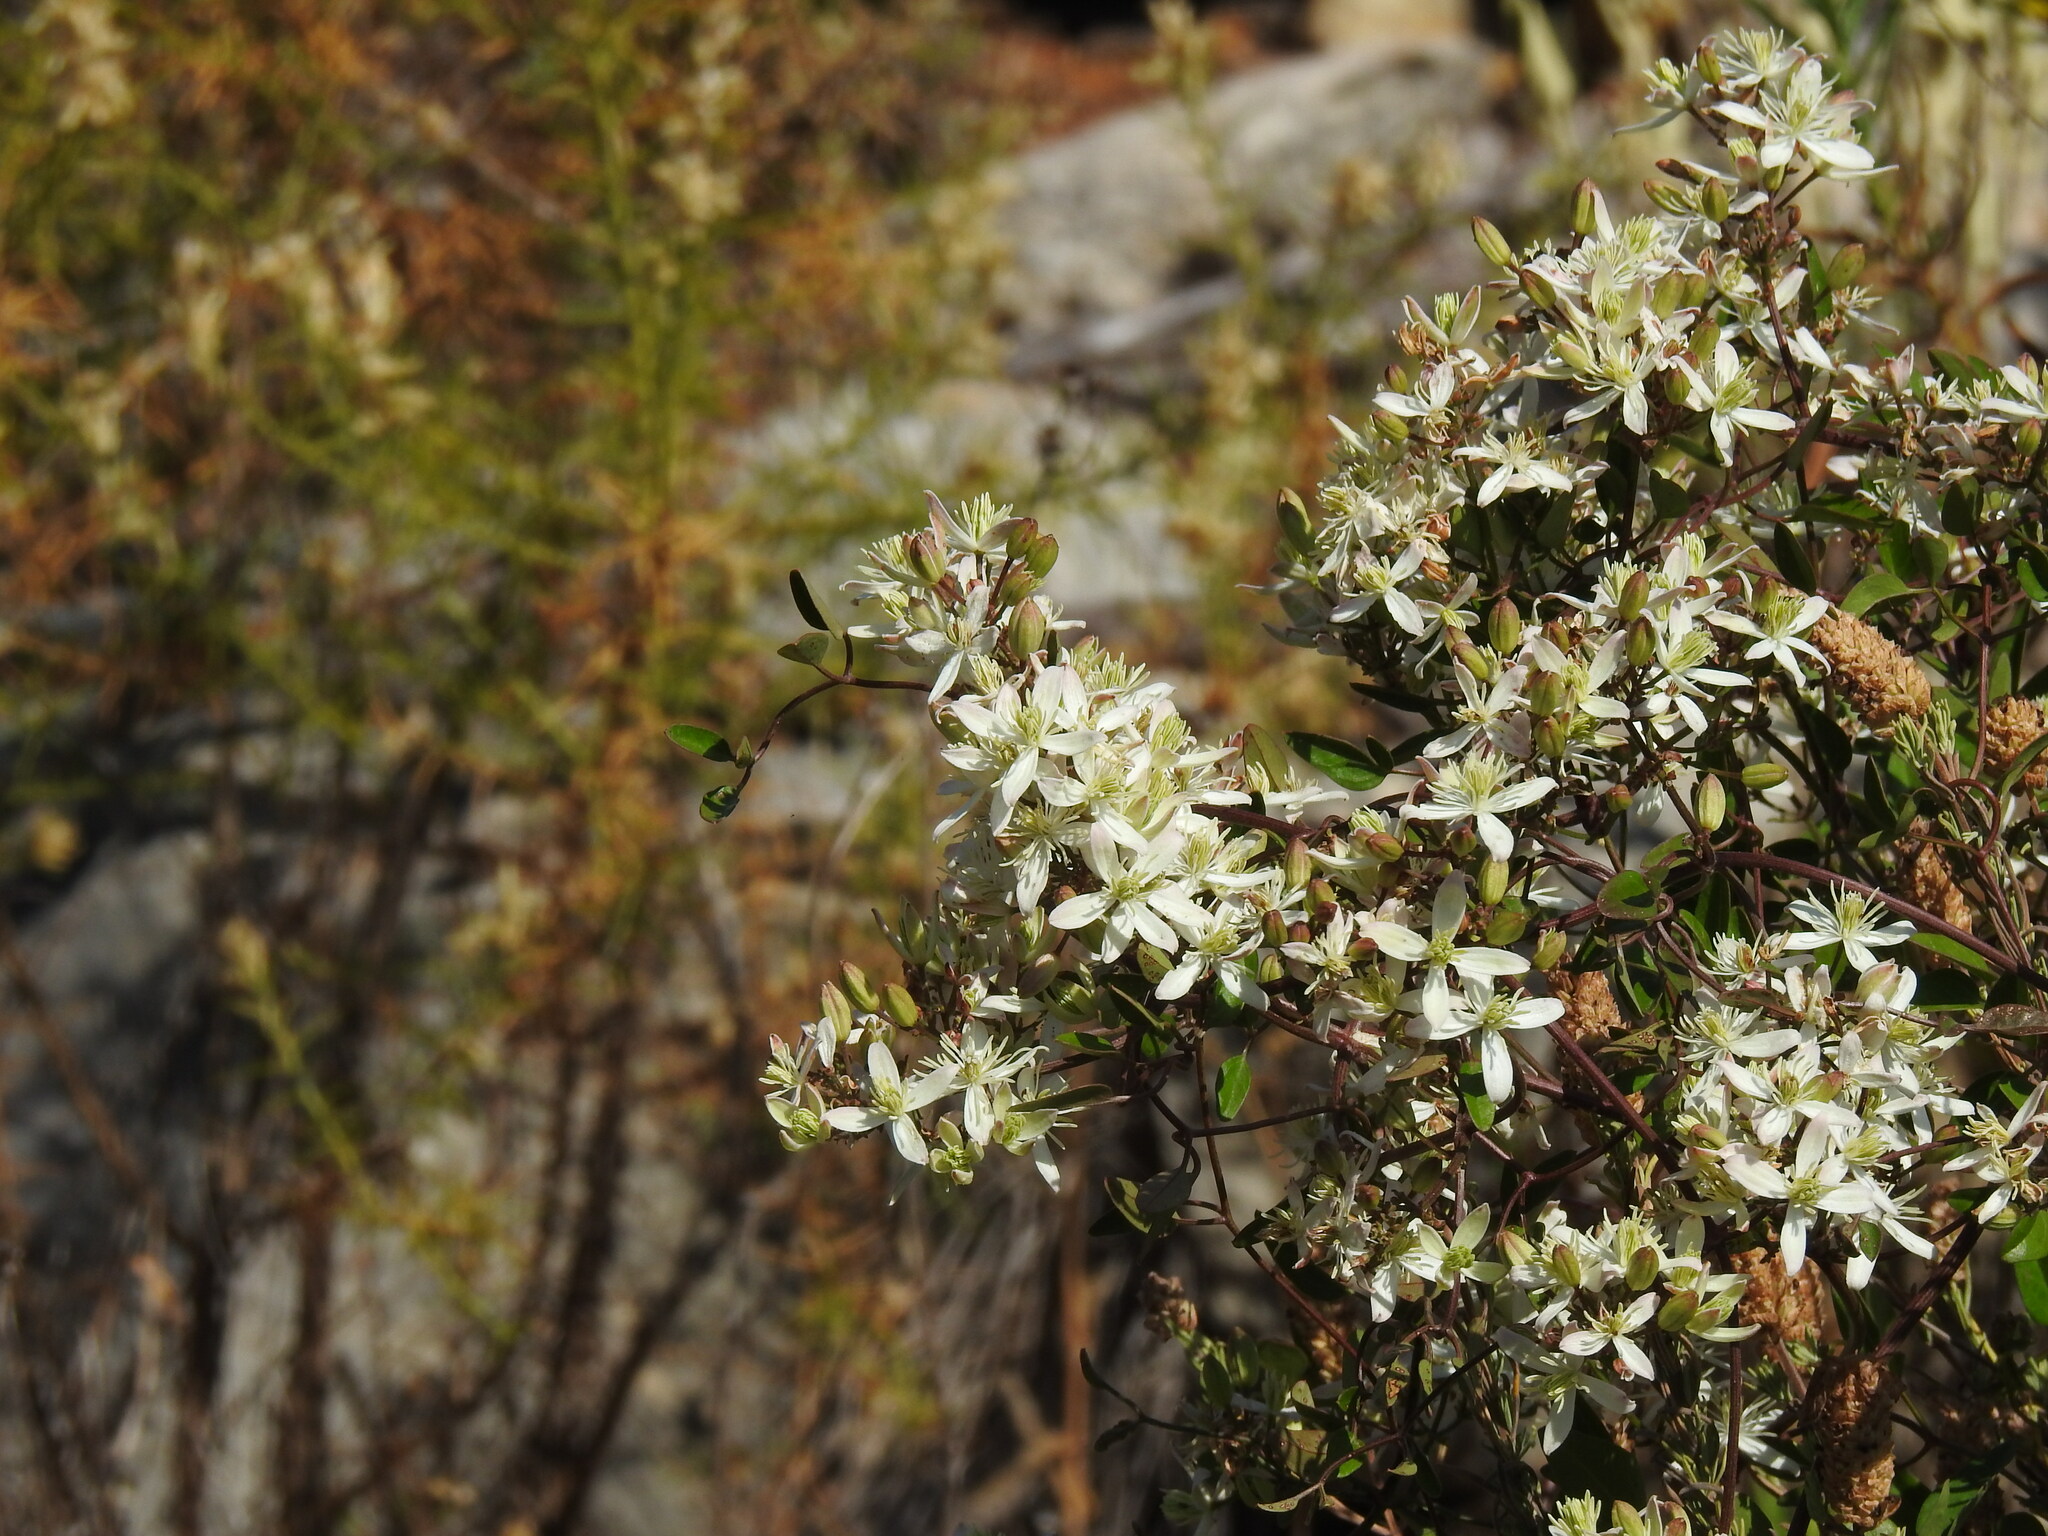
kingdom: Plantae
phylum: Tracheophyta
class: Magnoliopsida
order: Ranunculales
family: Ranunculaceae
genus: Clematis
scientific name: Clematis flammula
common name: Virgin's-bower
